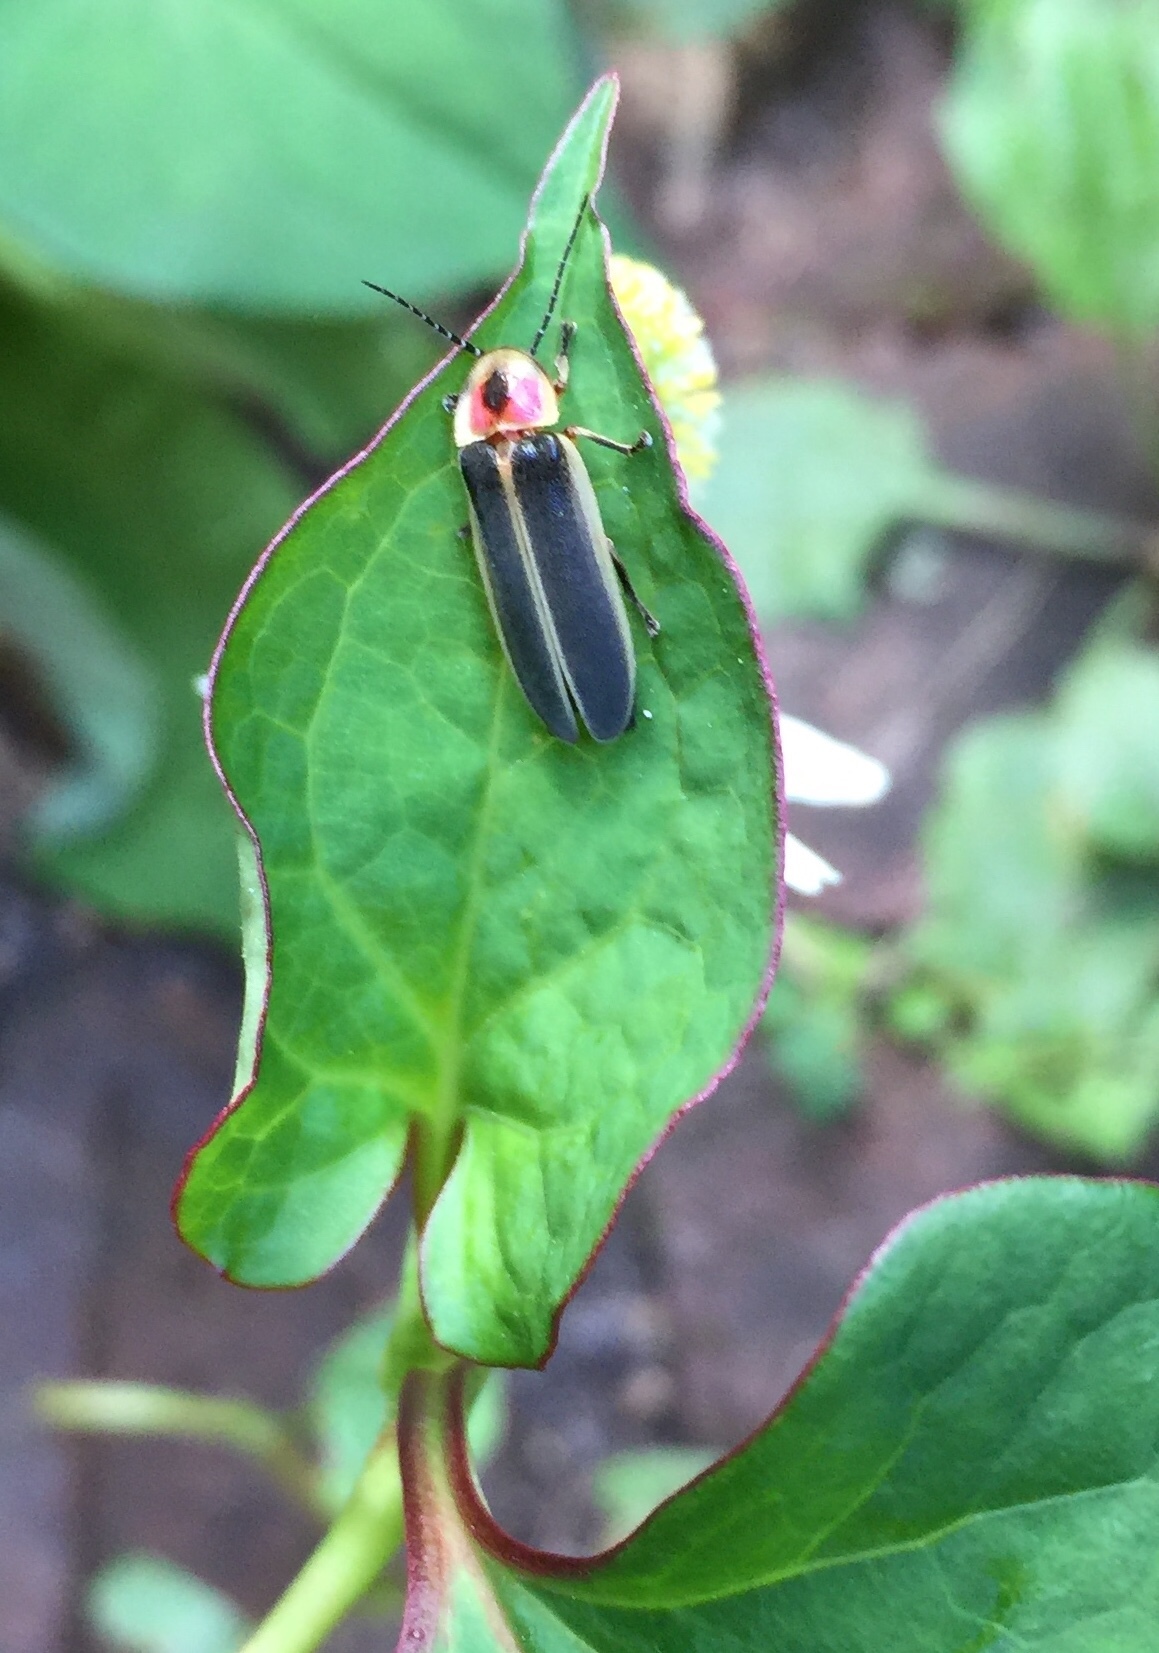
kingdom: Animalia
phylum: Arthropoda
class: Insecta
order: Coleoptera
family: Lampyridae
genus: Photinus
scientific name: Photinus pyralis
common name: Big dipper firefly
